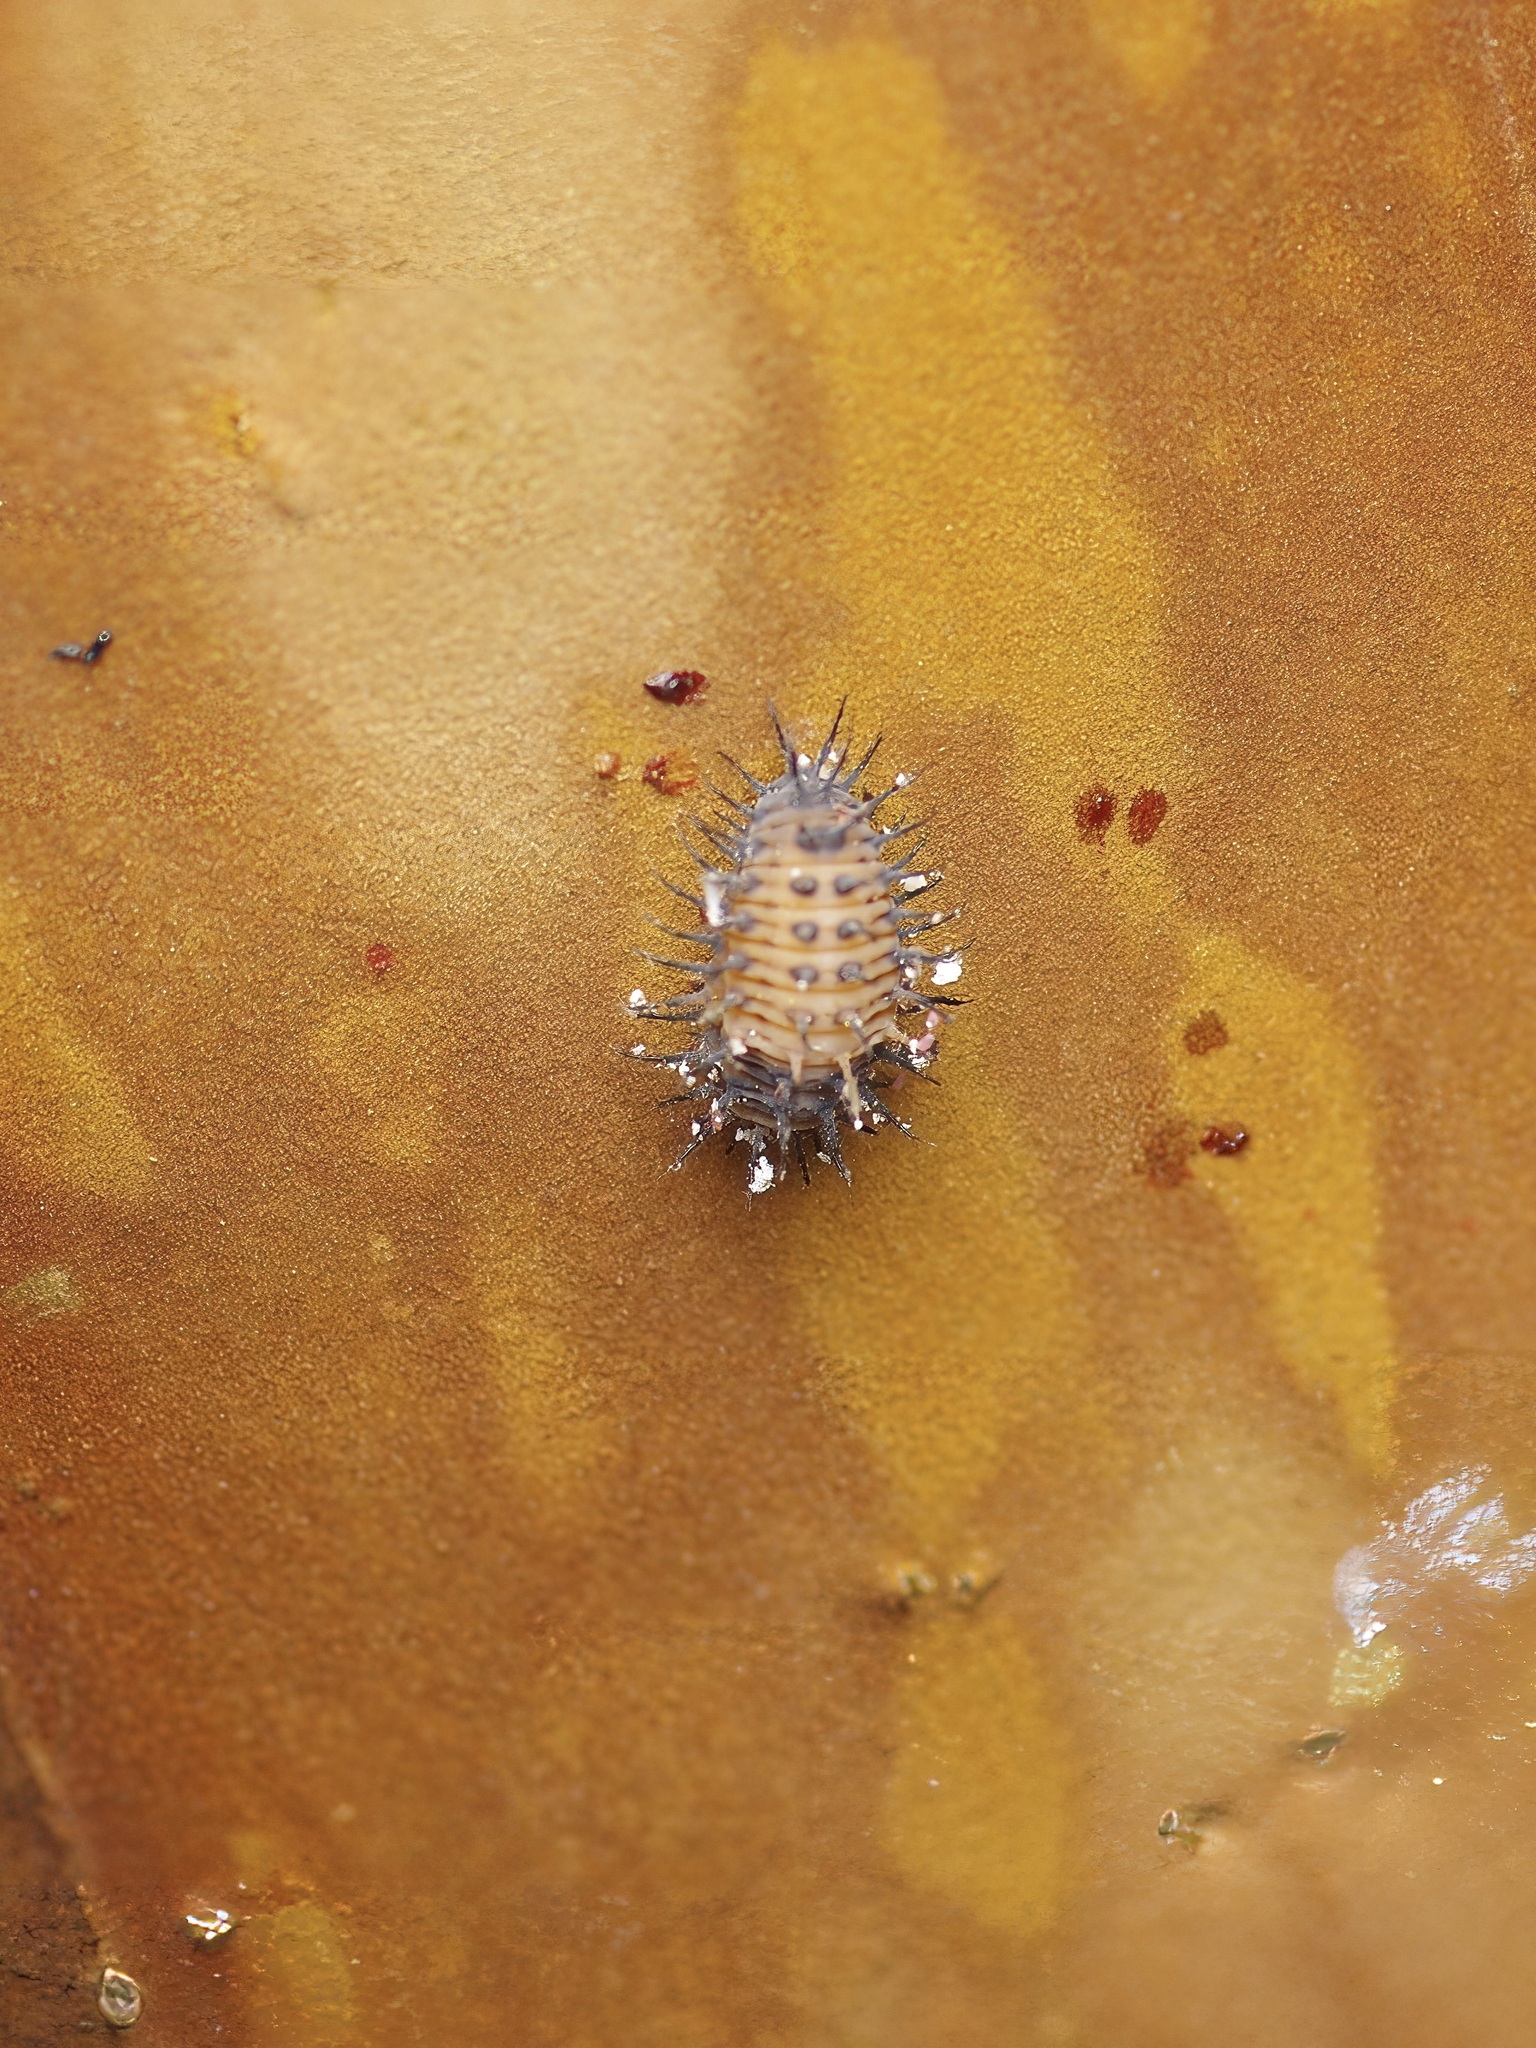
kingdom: Animalia
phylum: Arthropoda
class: Insecta
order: Coleoptera
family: Coccinellidae
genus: Chilocorus
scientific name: Chilocorus cacti
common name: Cactus lady beetle
